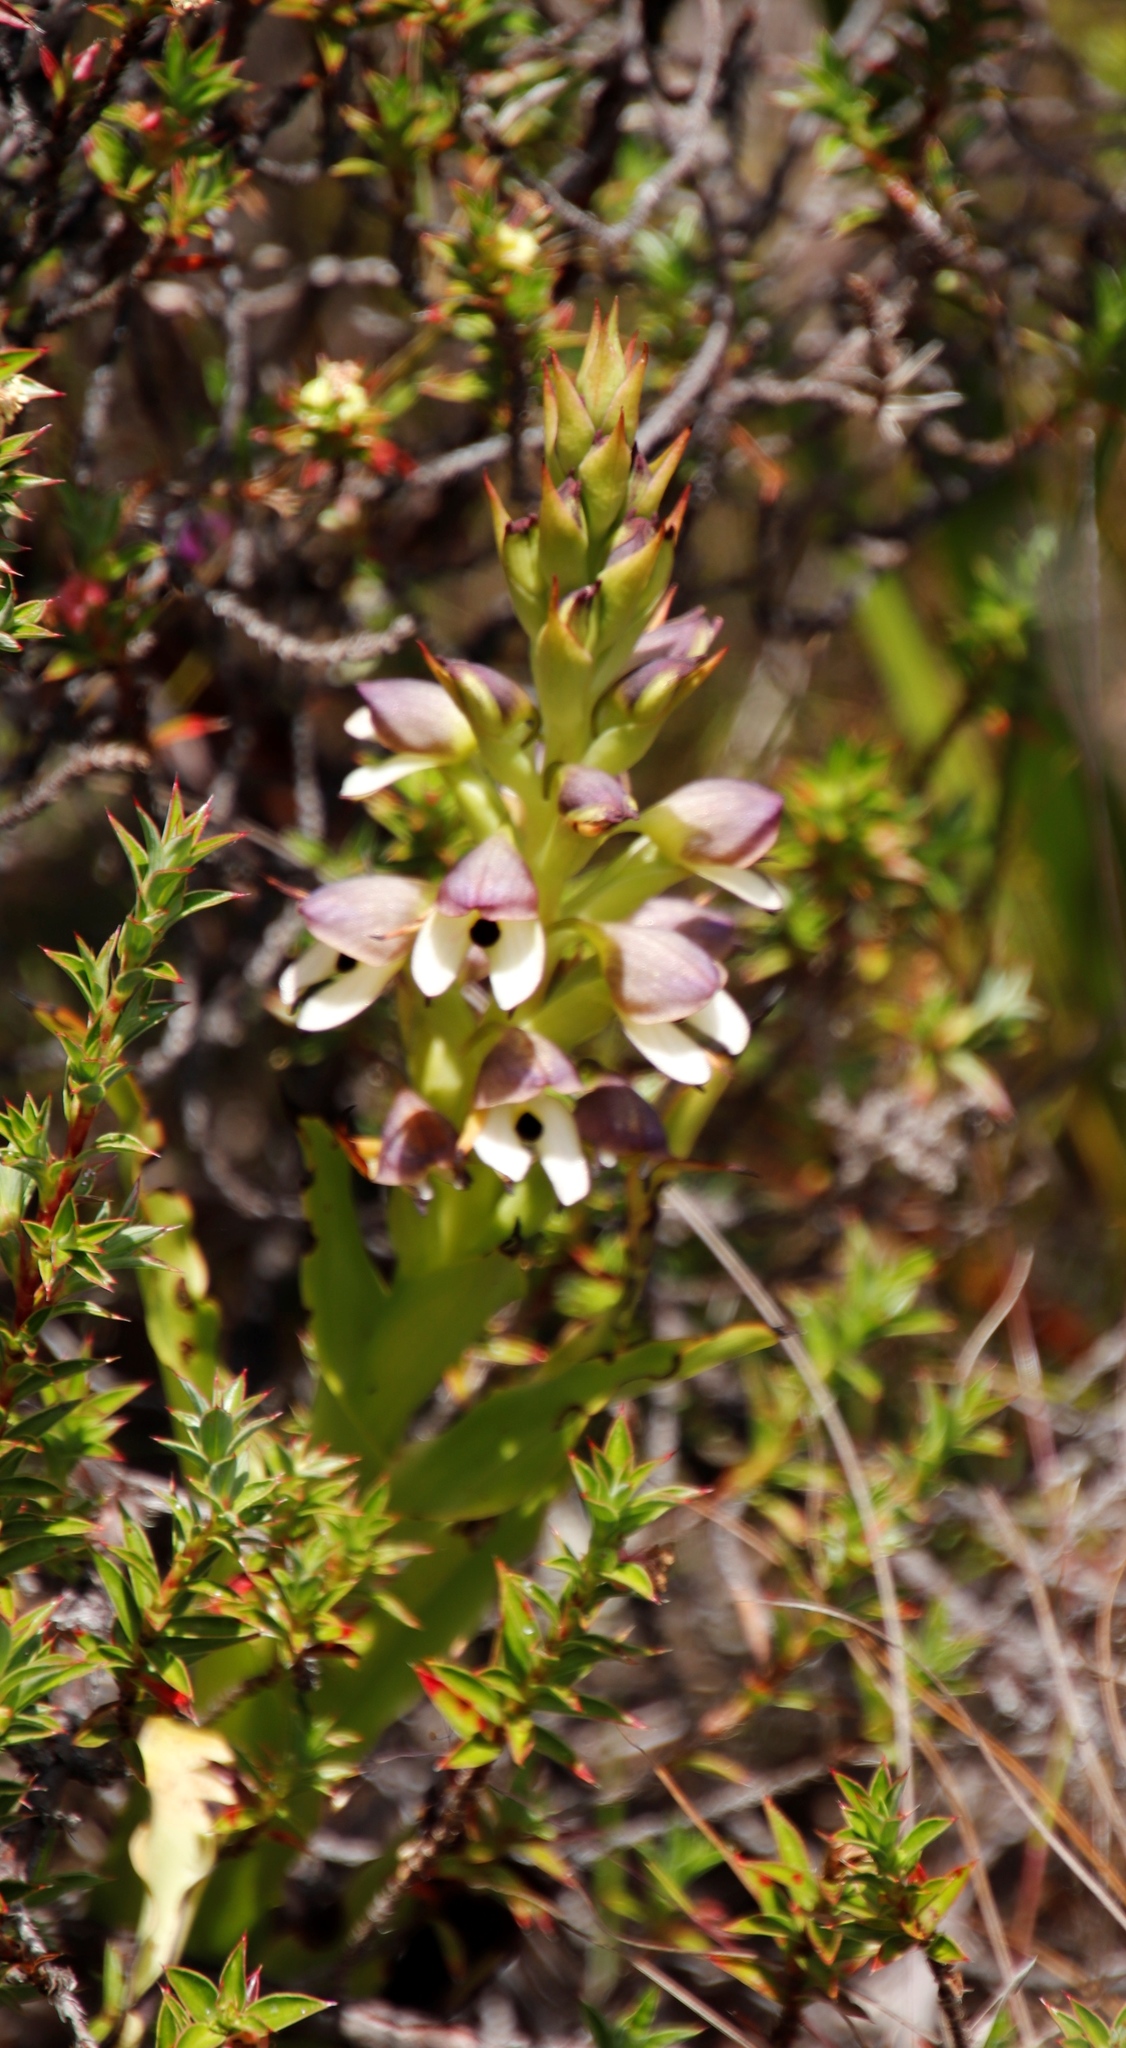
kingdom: Plantae
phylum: Tracheophyta
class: Liliopsida
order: Asparagales
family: Orchidaceae
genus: Disa
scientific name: Disa cornuta
